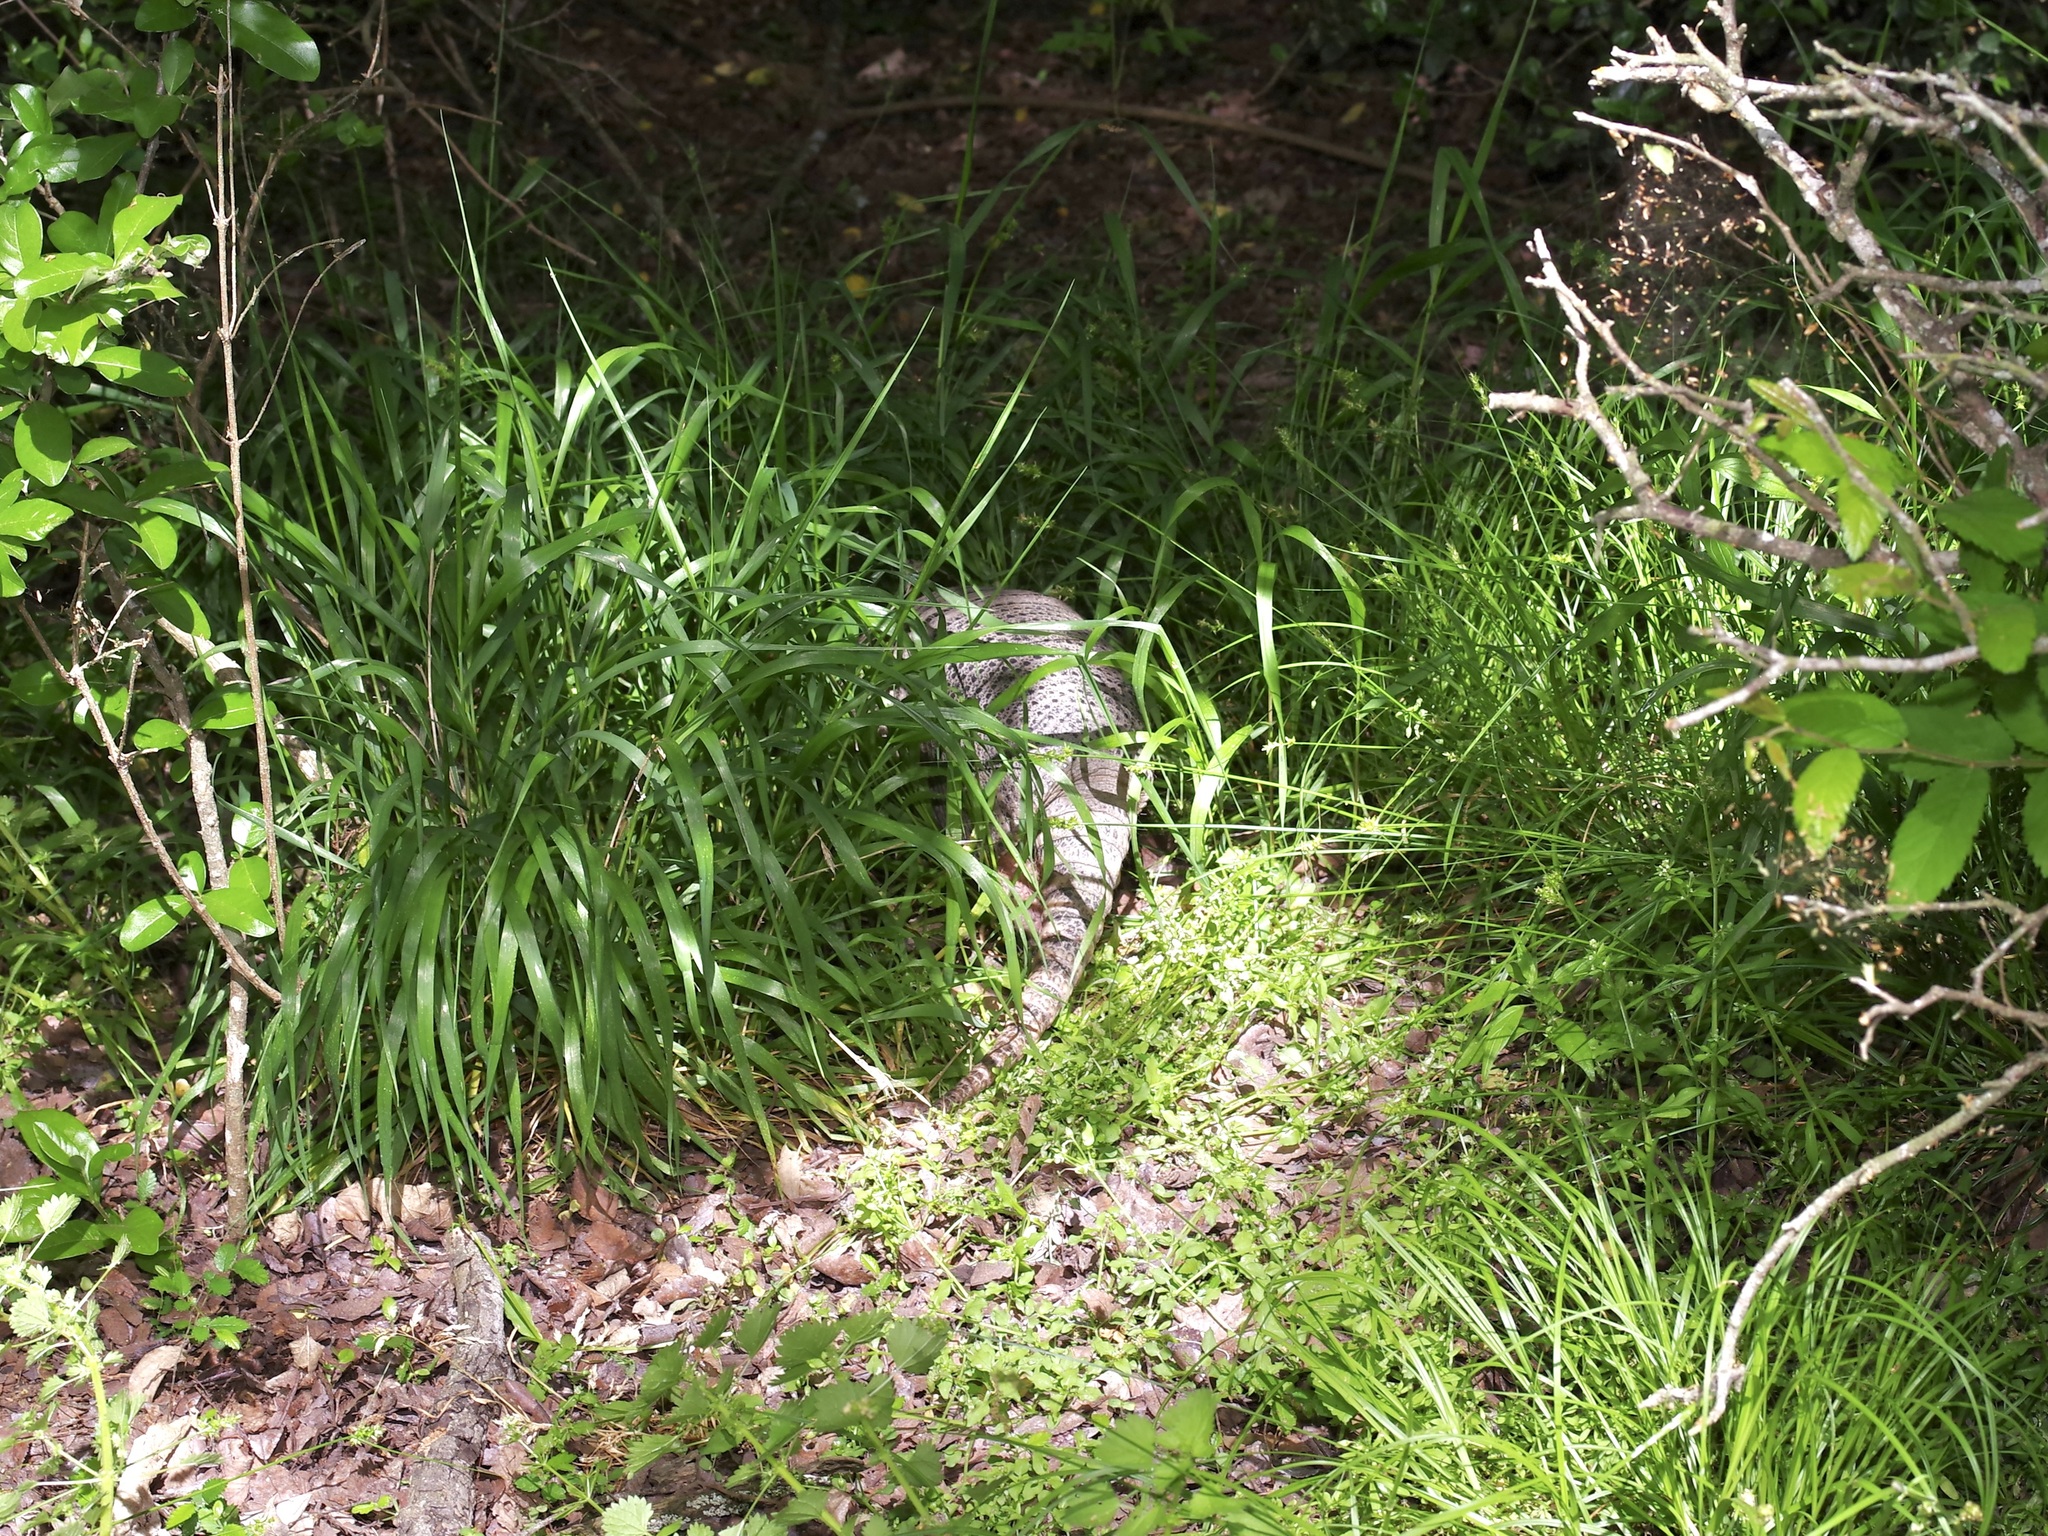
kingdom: Animalia
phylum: Chordata
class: Mammalia
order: Cingulata
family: Dasypodidae
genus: Dasypus
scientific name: Dasypus novemcinctus
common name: Nine-banded armadillo
